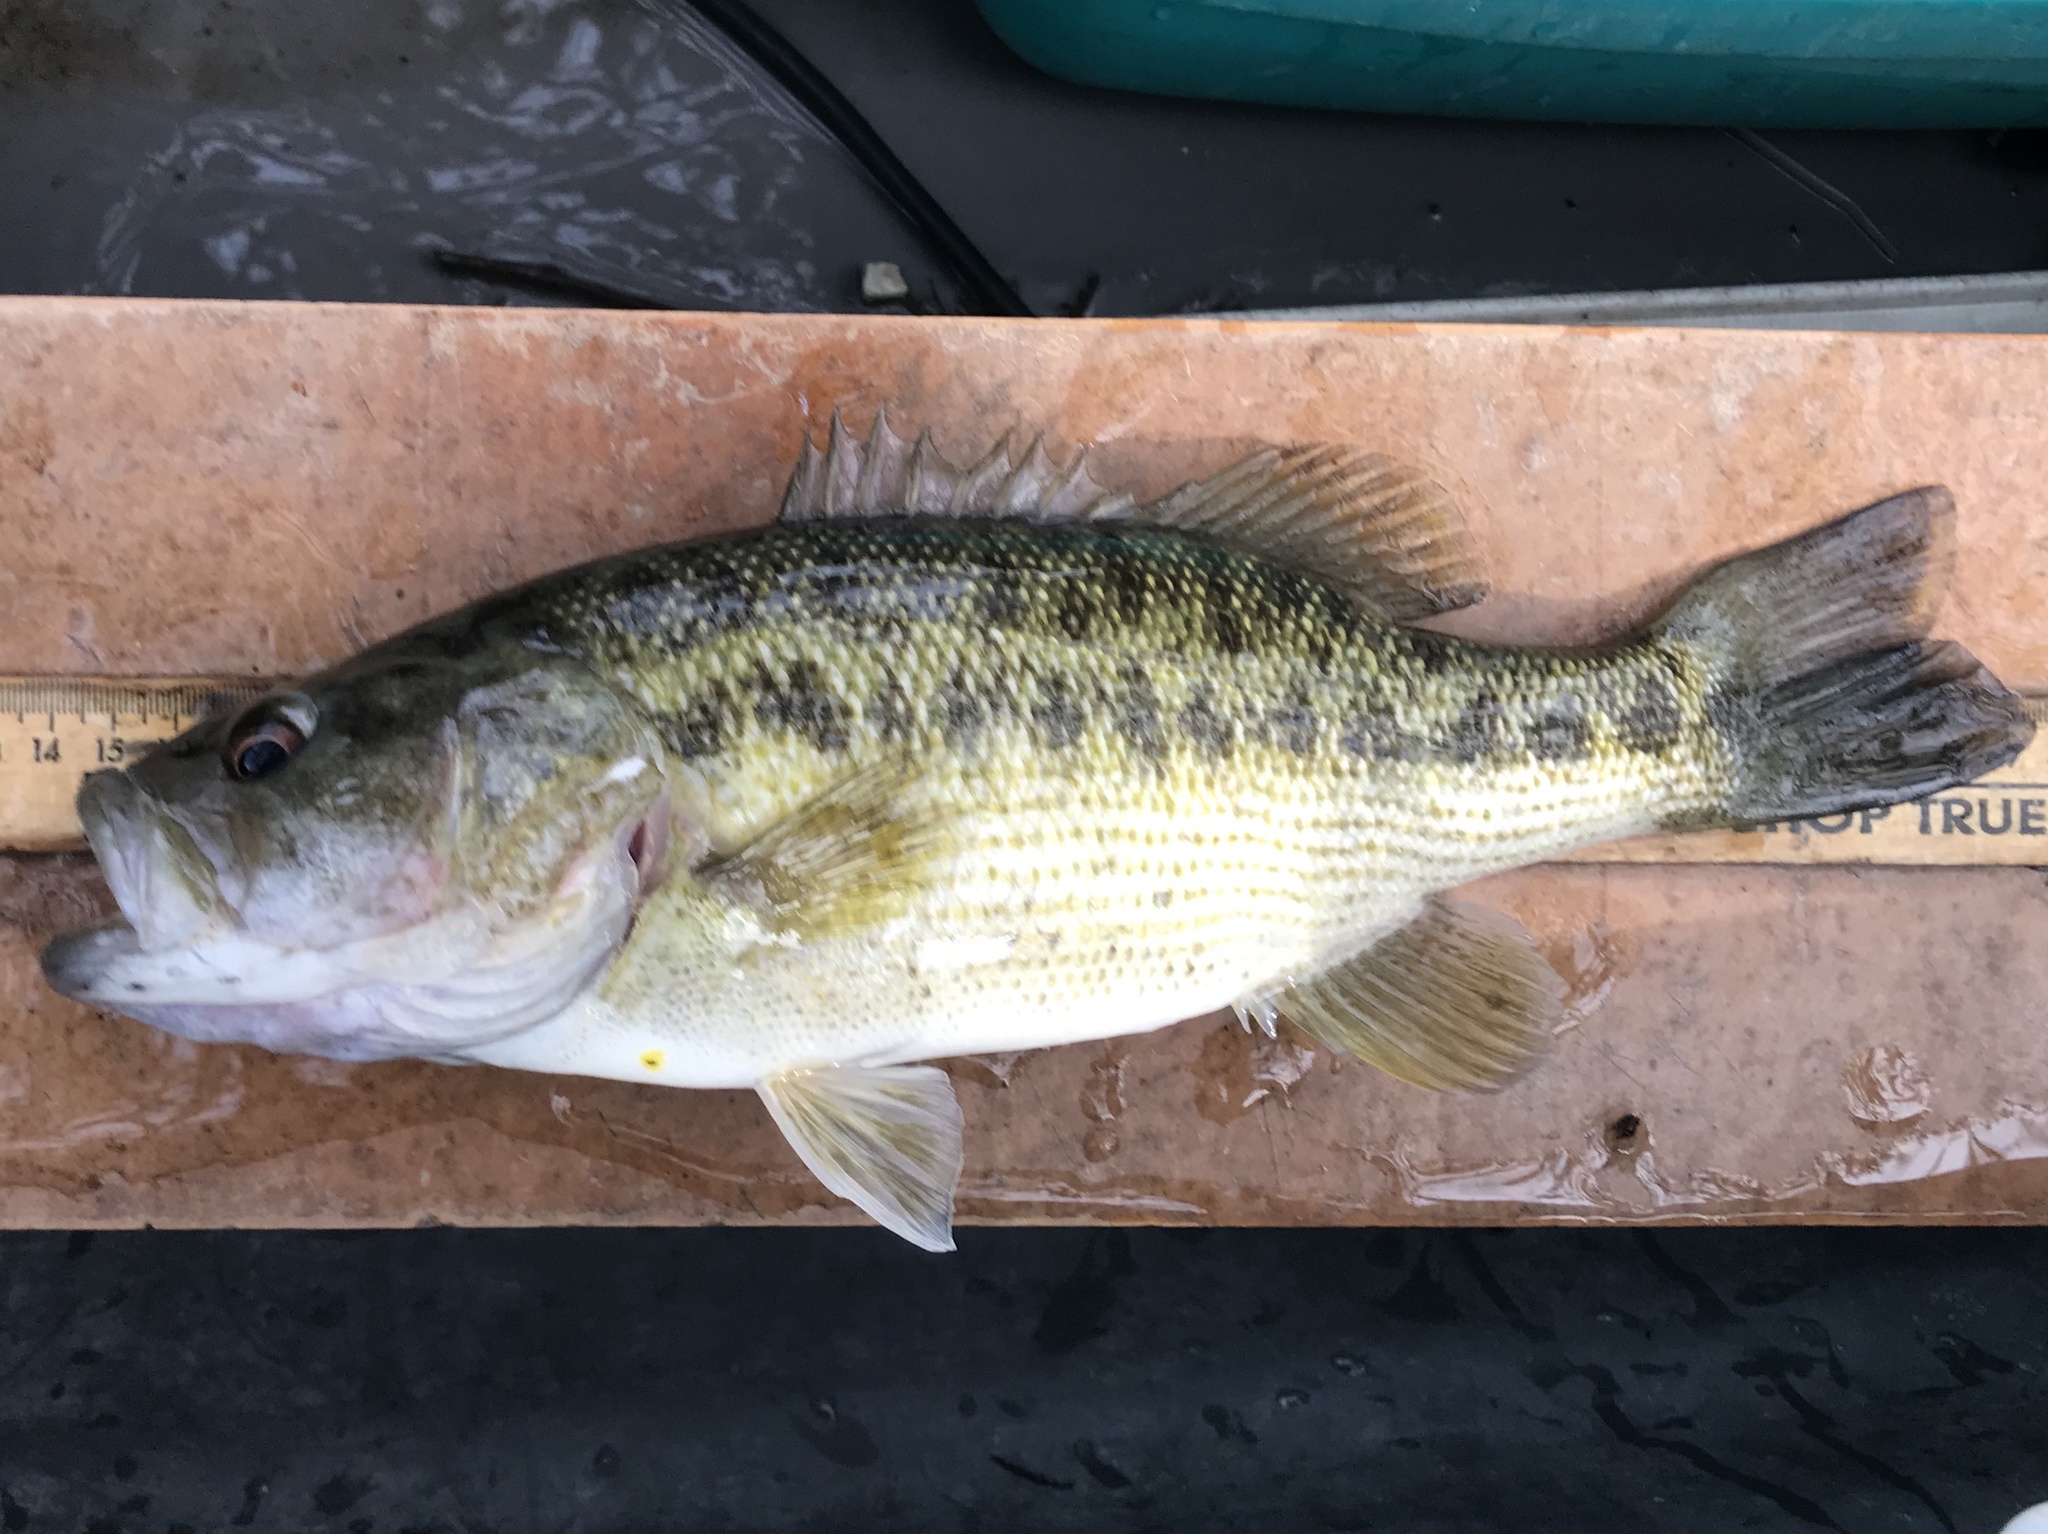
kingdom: Animalia
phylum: Chordata
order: Perciformes
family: Centrarchidae
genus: Micropterus
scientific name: Micropterus treculii
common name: Guadalupe bass
